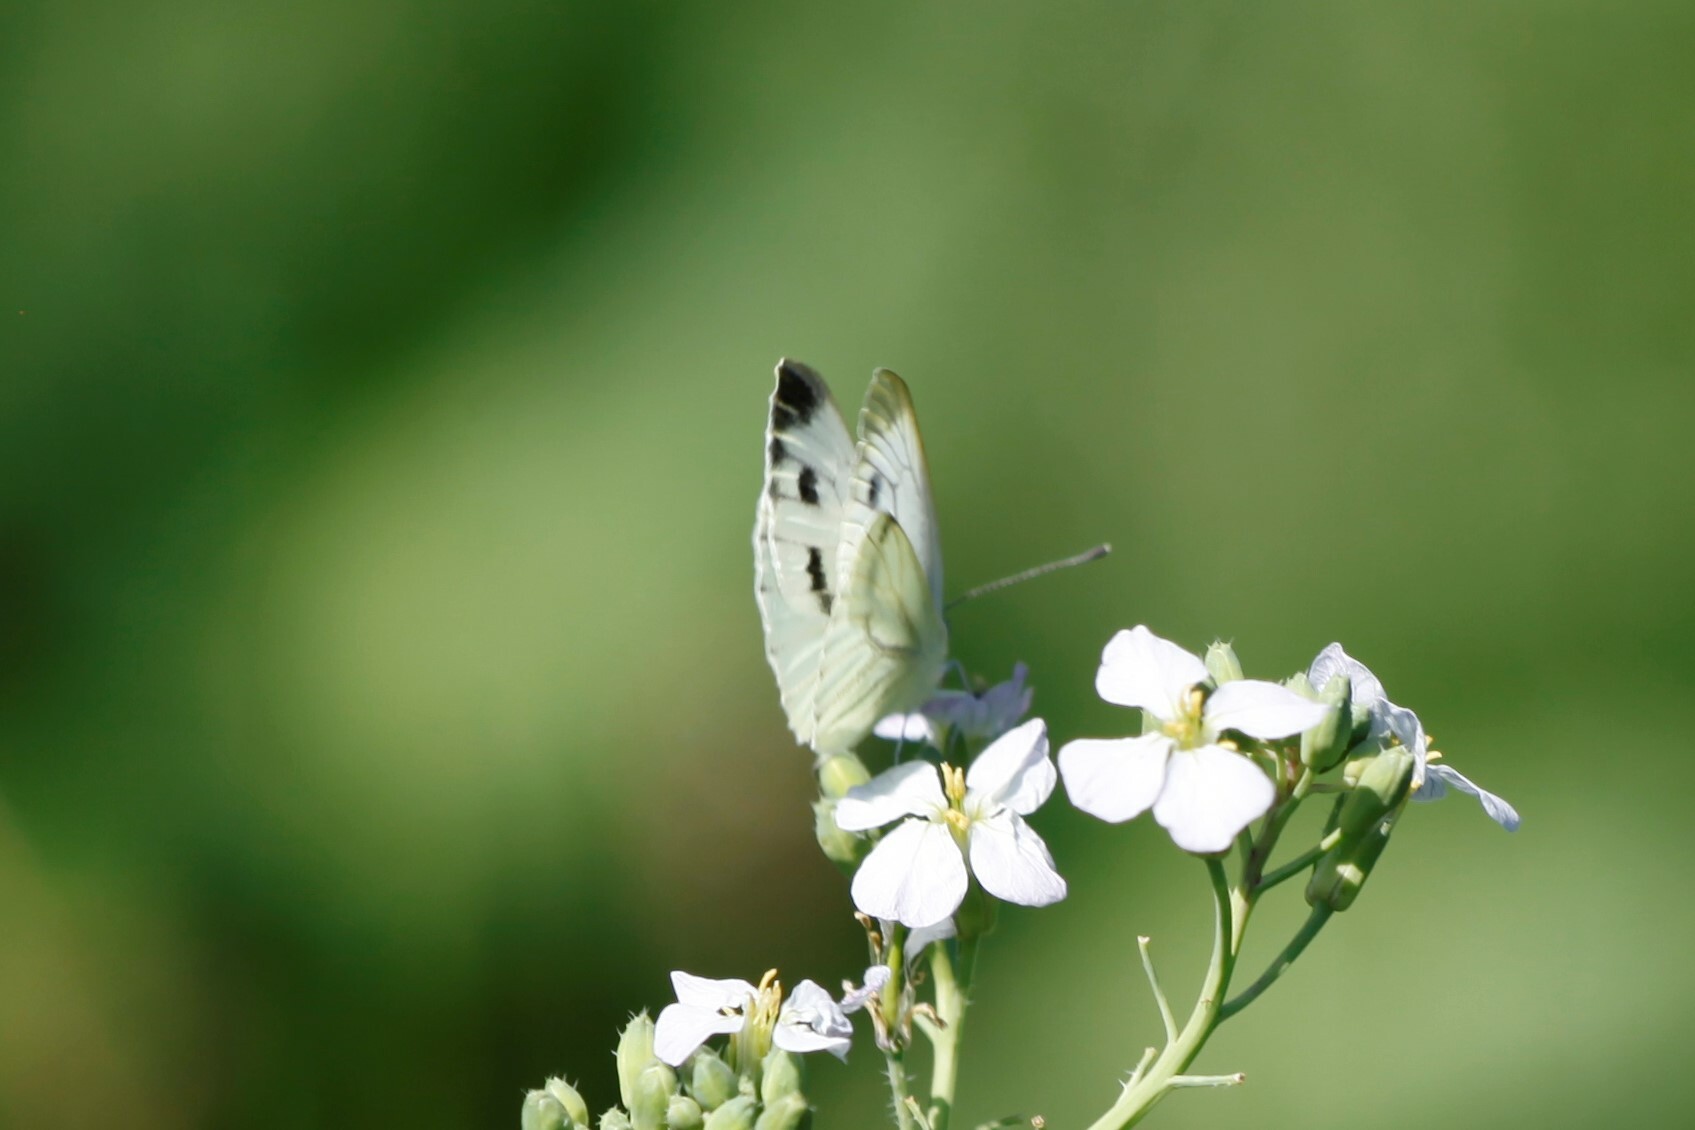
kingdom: Animalia
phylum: Arthropoda
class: Insecta
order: Lepidoptera
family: Pieridae
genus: Pieris
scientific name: Pieris napi
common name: Green-veined white
